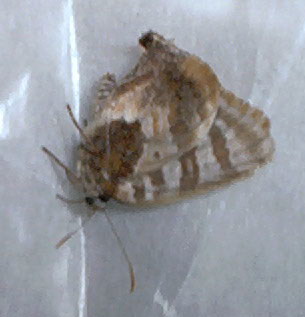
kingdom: Animalia
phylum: Arthropoda
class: Insecta
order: Lepidoptera
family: Lycaenidae
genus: Arawacus
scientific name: Arawacus ellida
